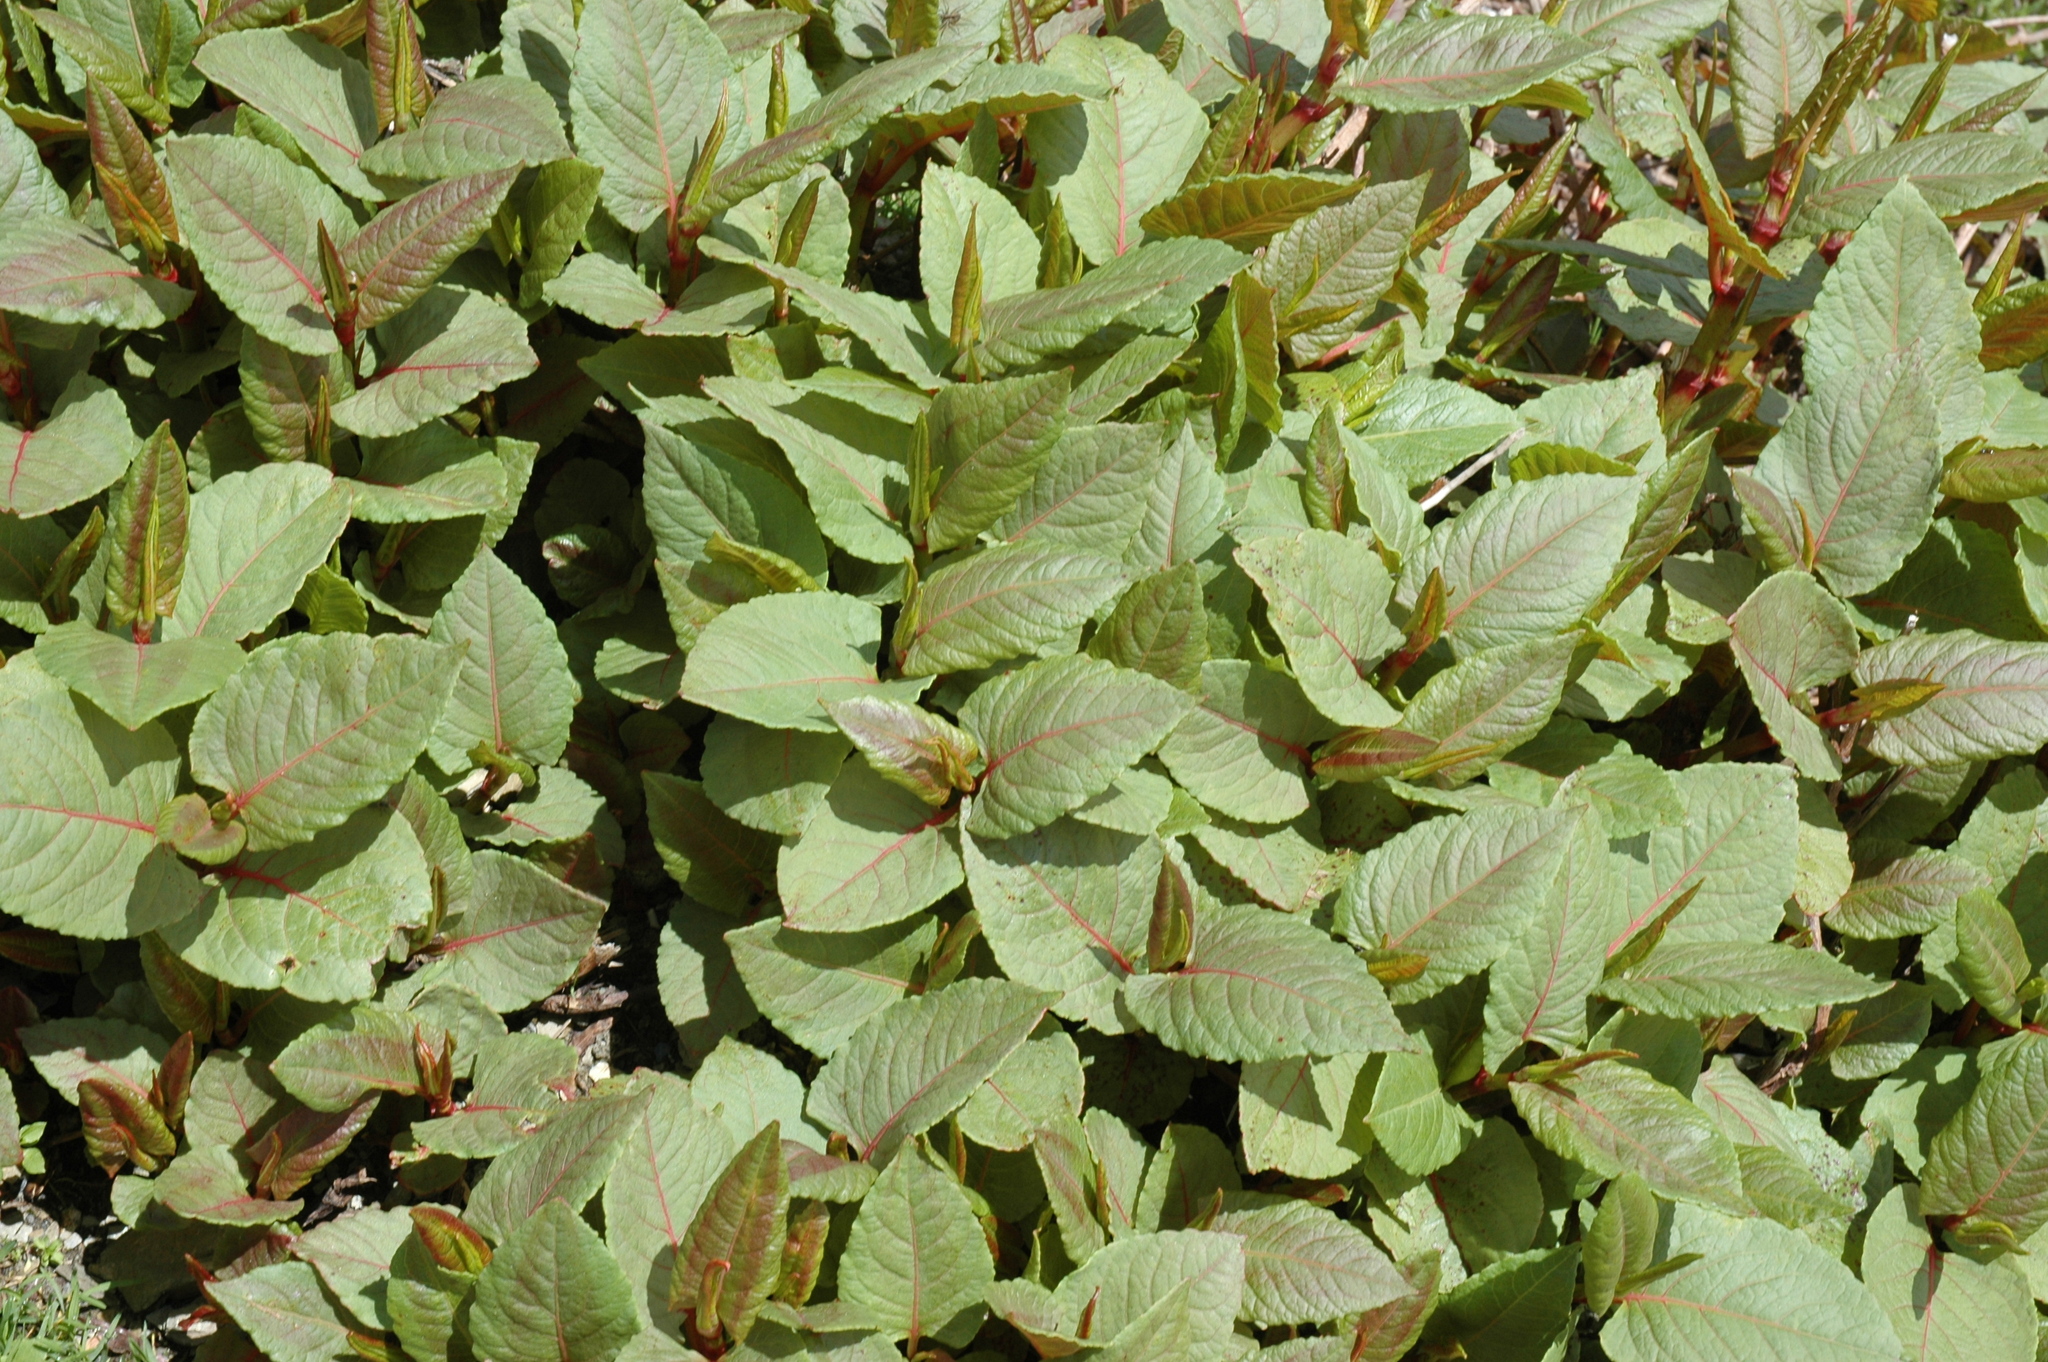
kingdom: Plantae
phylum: Tracheophyta
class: Magnoliopsida
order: Caryophyllales
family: Polygonaceae
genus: Reynoutria
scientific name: Reynoutria japonica
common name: Japanese knotweed
